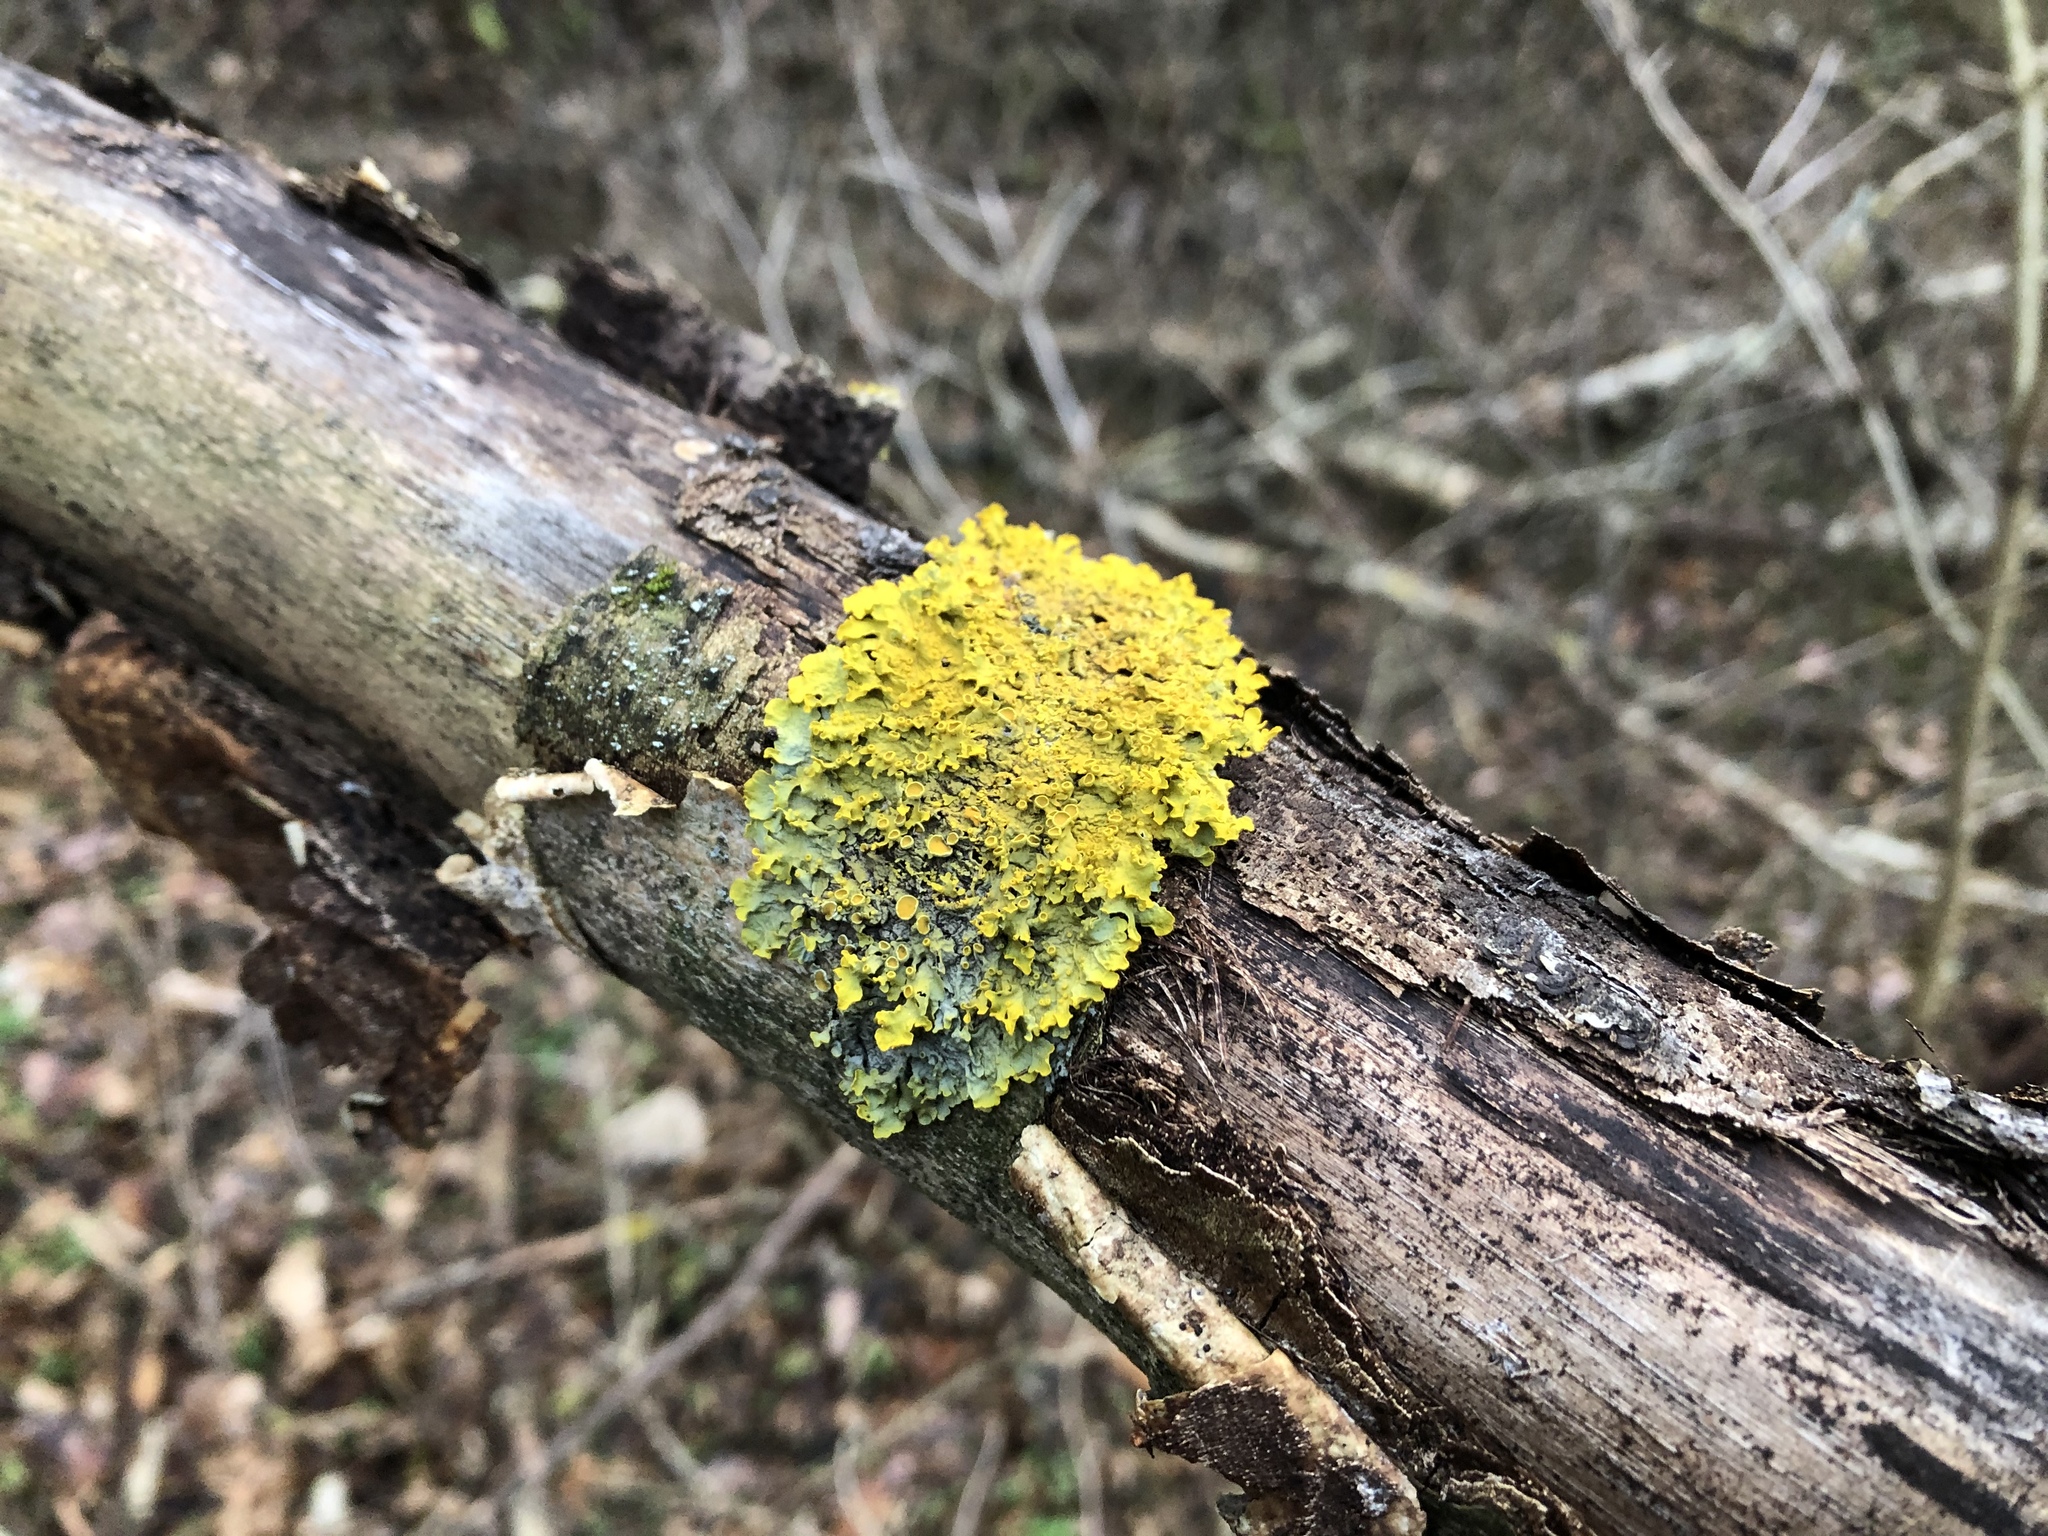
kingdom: Fungi
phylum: Ascomycota
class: Lecanoromycetes
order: Teloschistales
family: Teloschistaceae
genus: Xanthoria
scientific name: Xanthoria parietina
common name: Common orange lichen
